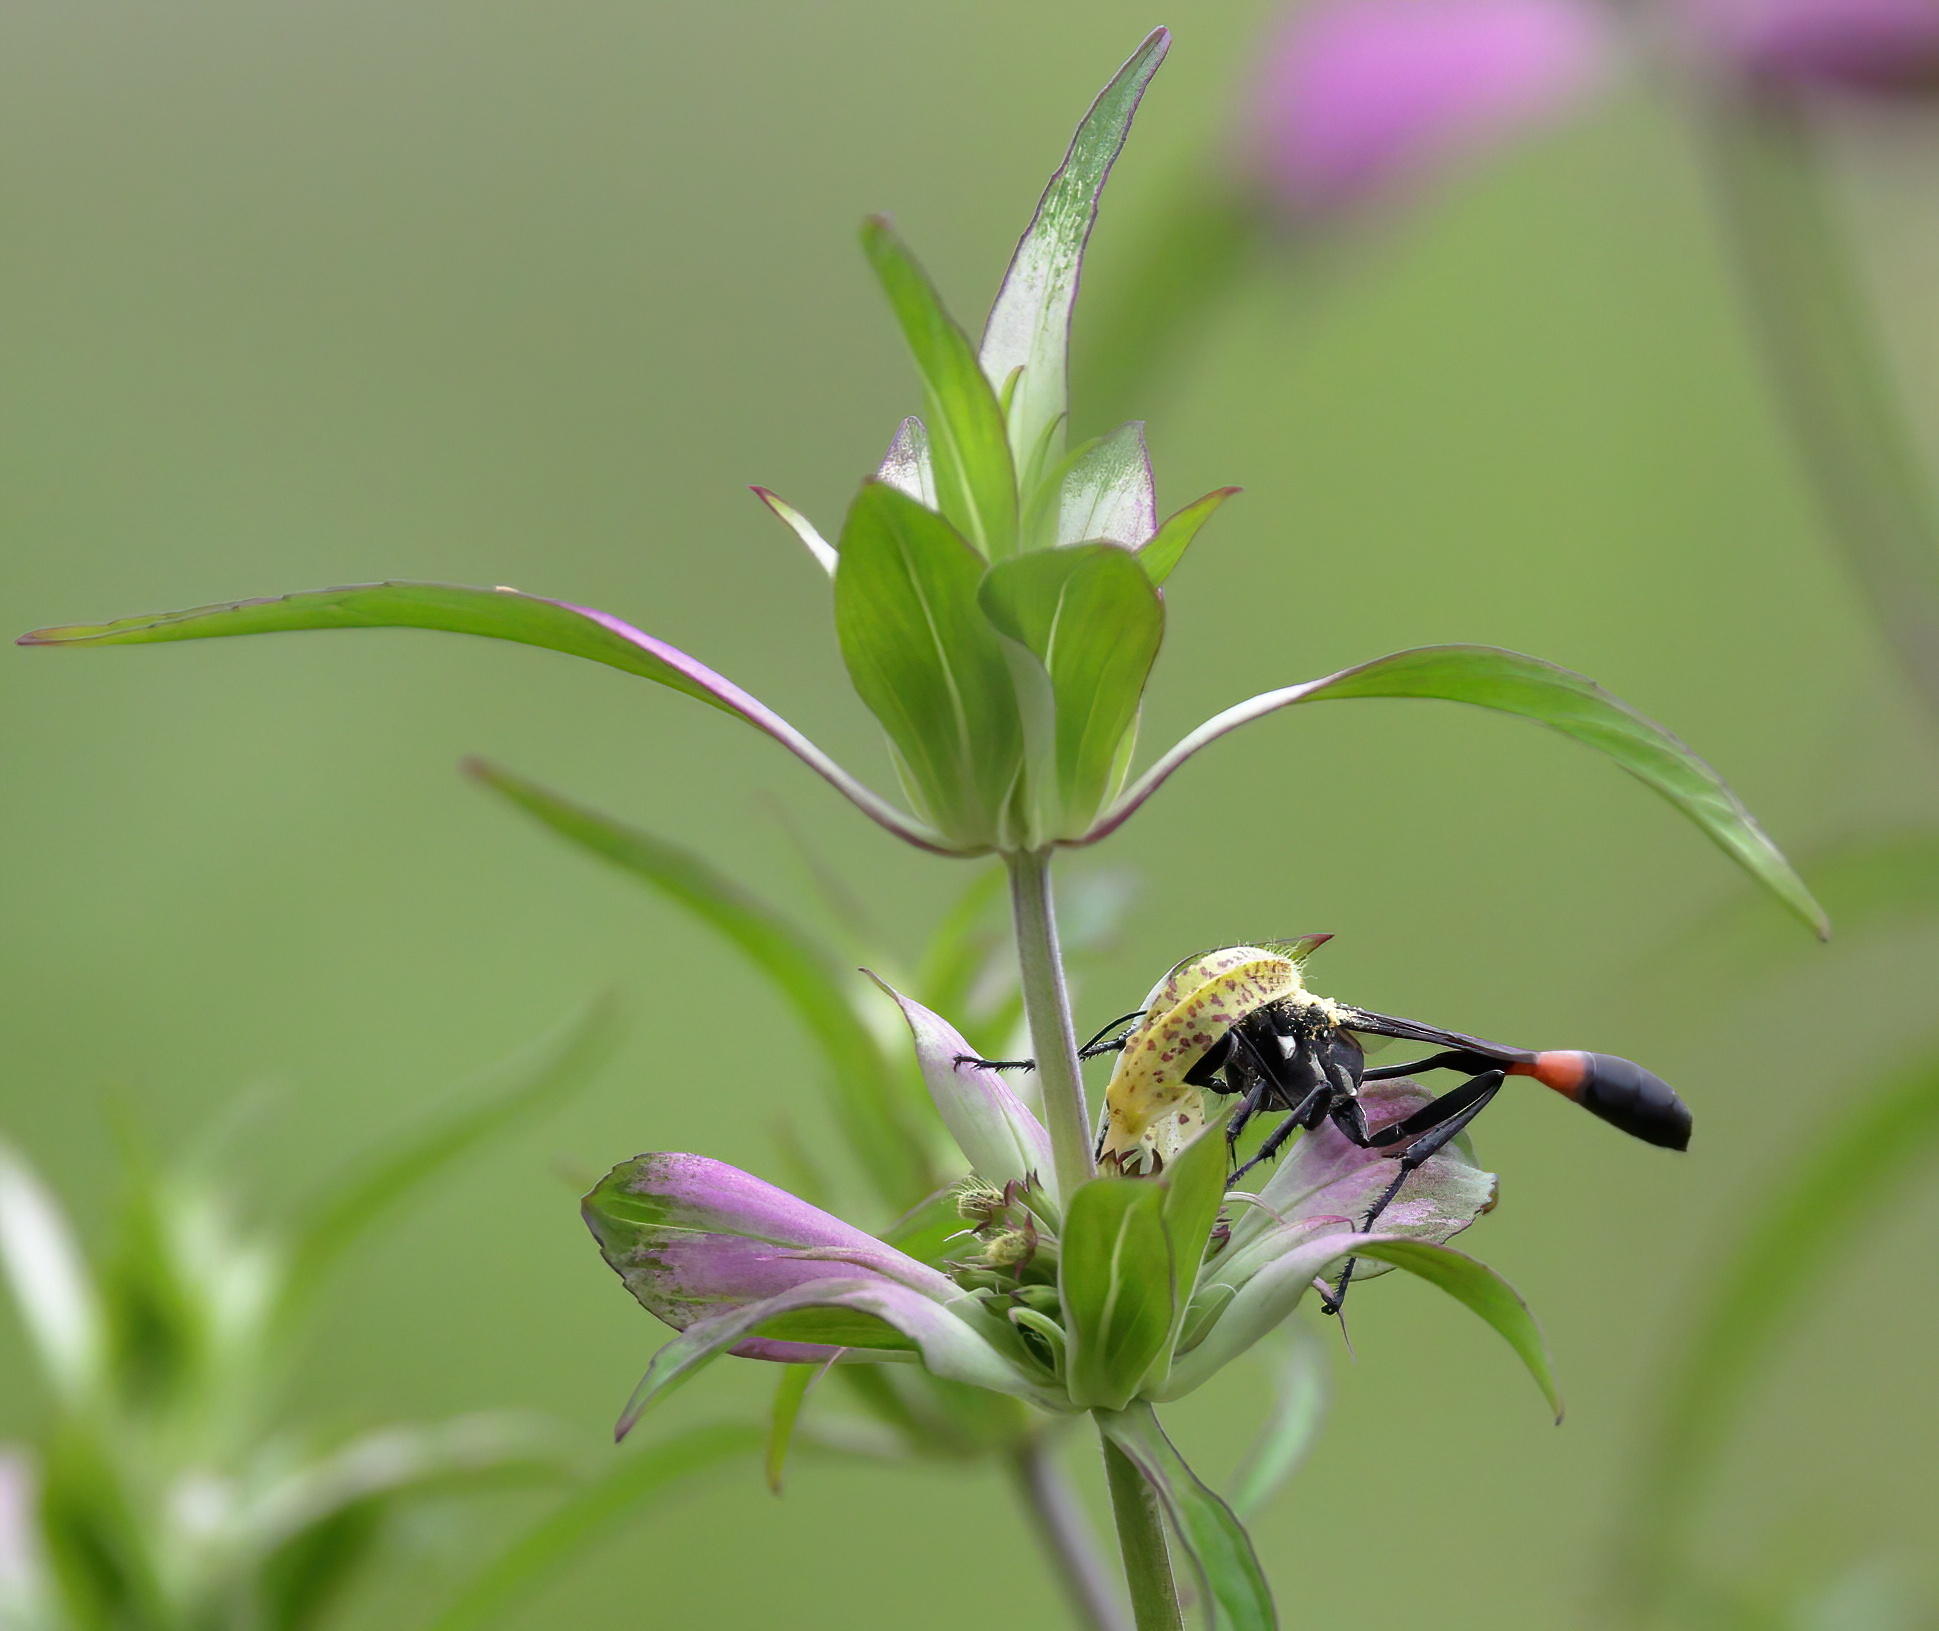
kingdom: Animalia
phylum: Arthropoda
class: Insecta
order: Hymenoptera
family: Sphecidae
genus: Ammophila
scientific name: Ammophila procera
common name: Common thread-waisted wasp
